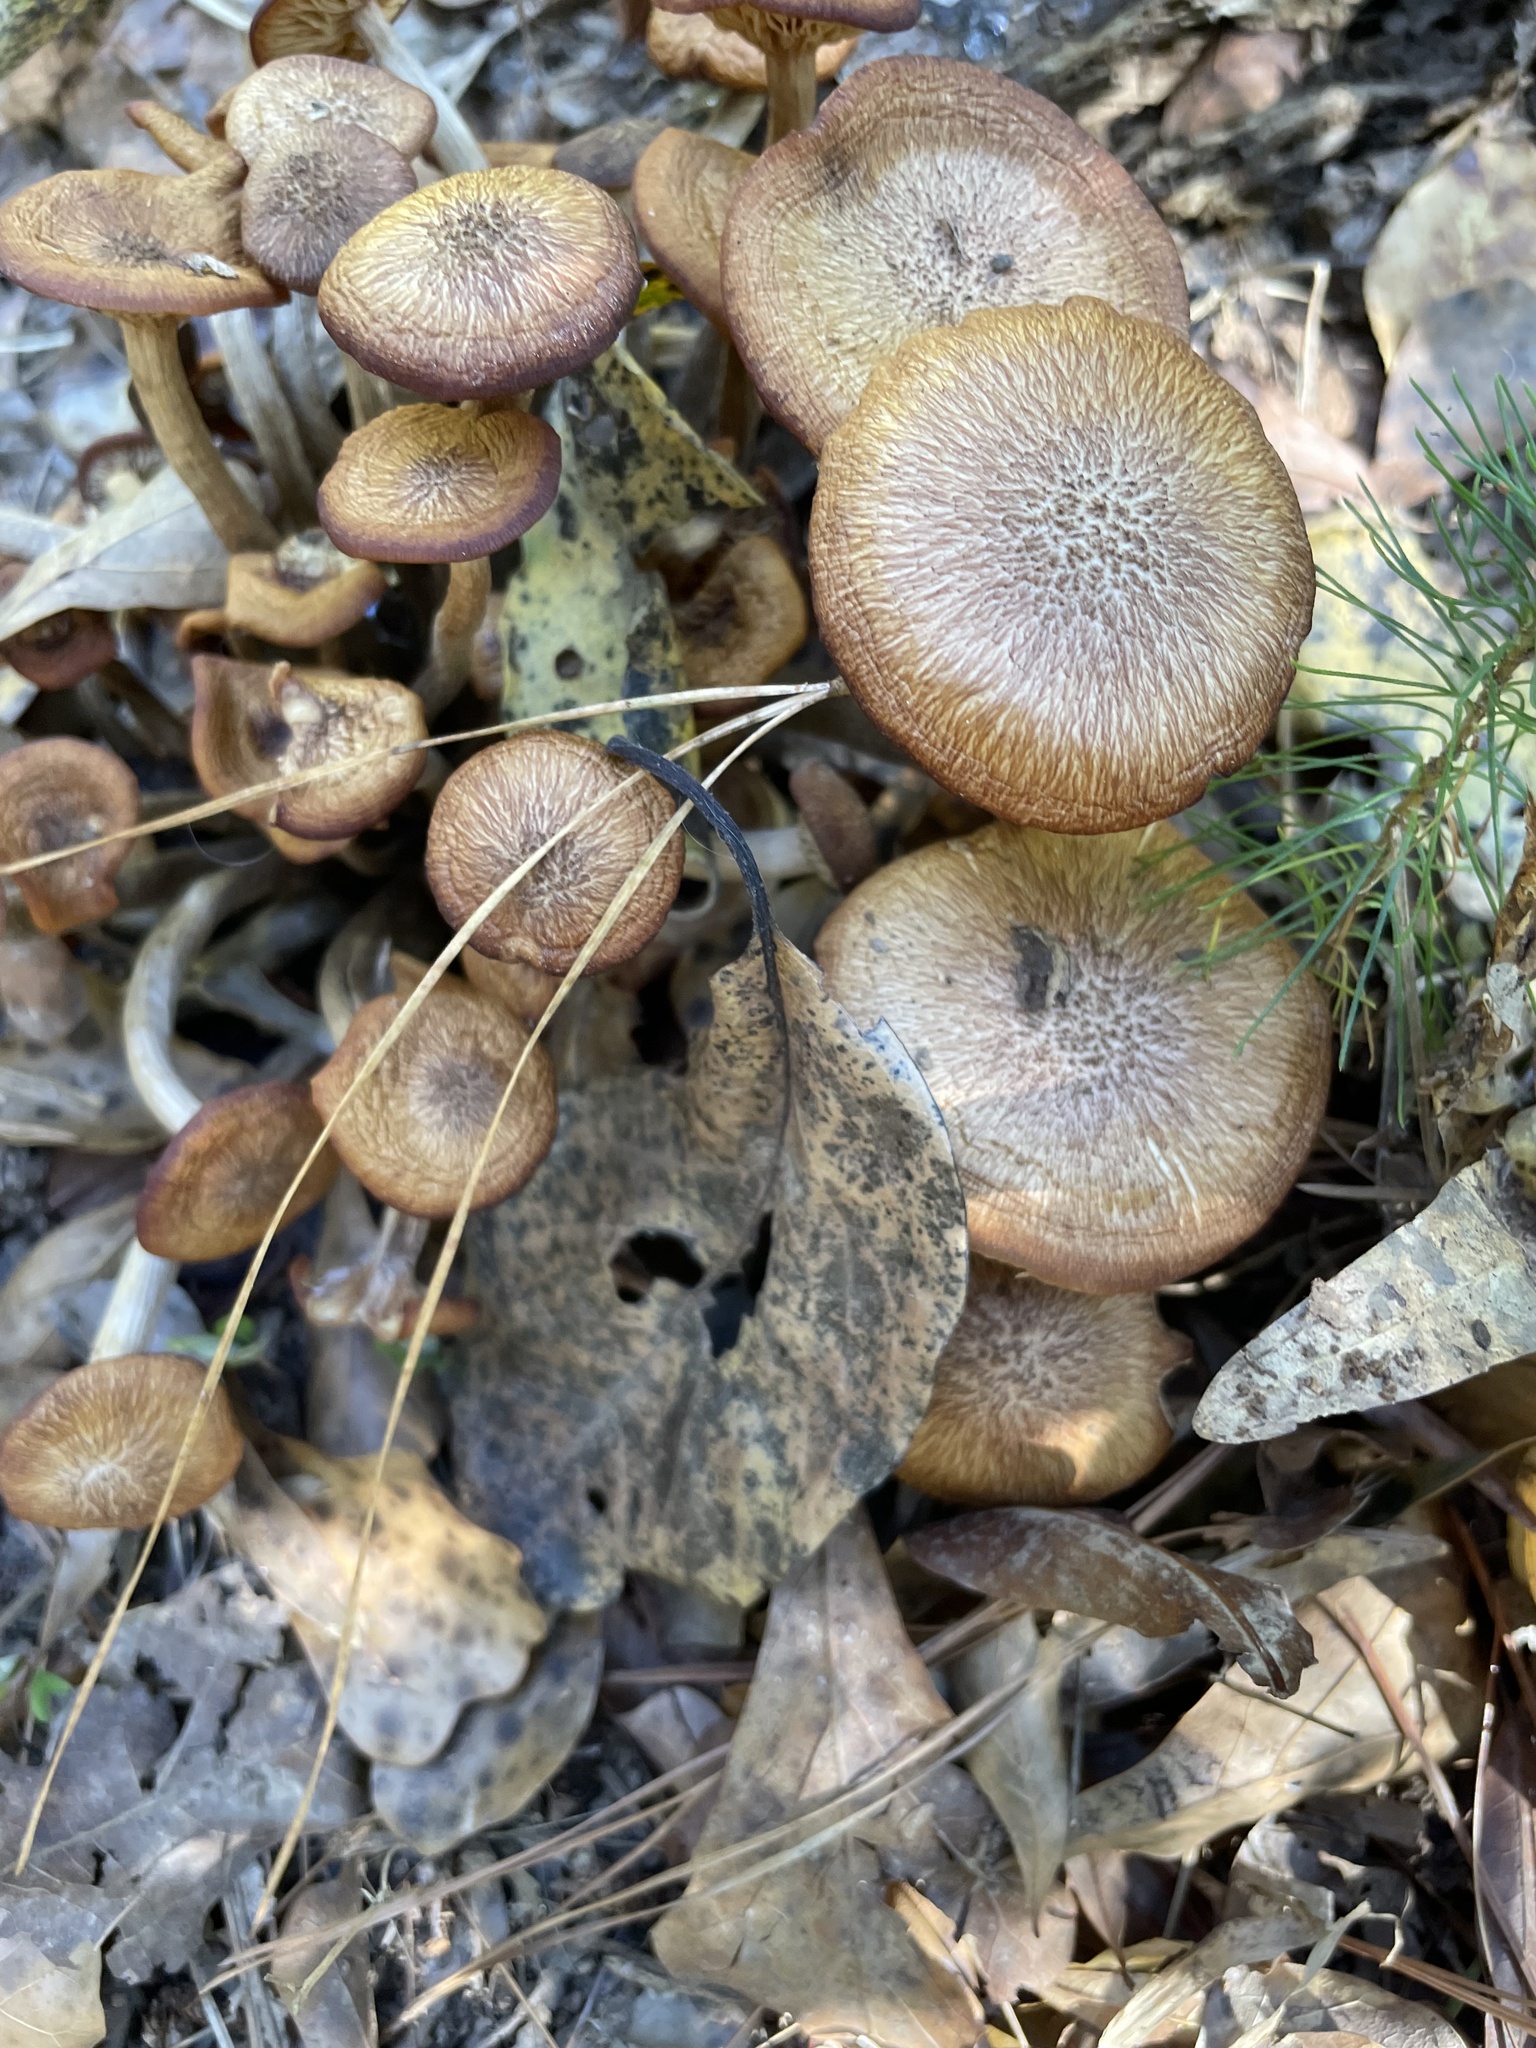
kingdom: Fungi
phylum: Basidiomycota
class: Agaricomycetes
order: Agaricales
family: Physalacriaceae
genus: Desarmillaria
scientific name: Desarmillaria caespitosa
